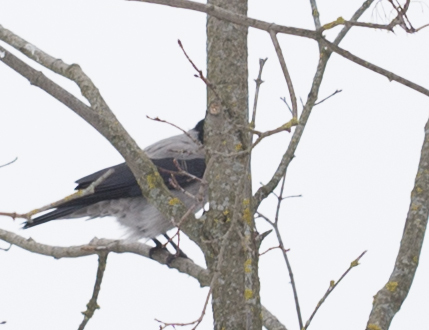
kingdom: Animalia
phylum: Chordata
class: Aves
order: Passeriformes
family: Corvidae
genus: Corvus
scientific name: Corvus cornix
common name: Hooded crow
